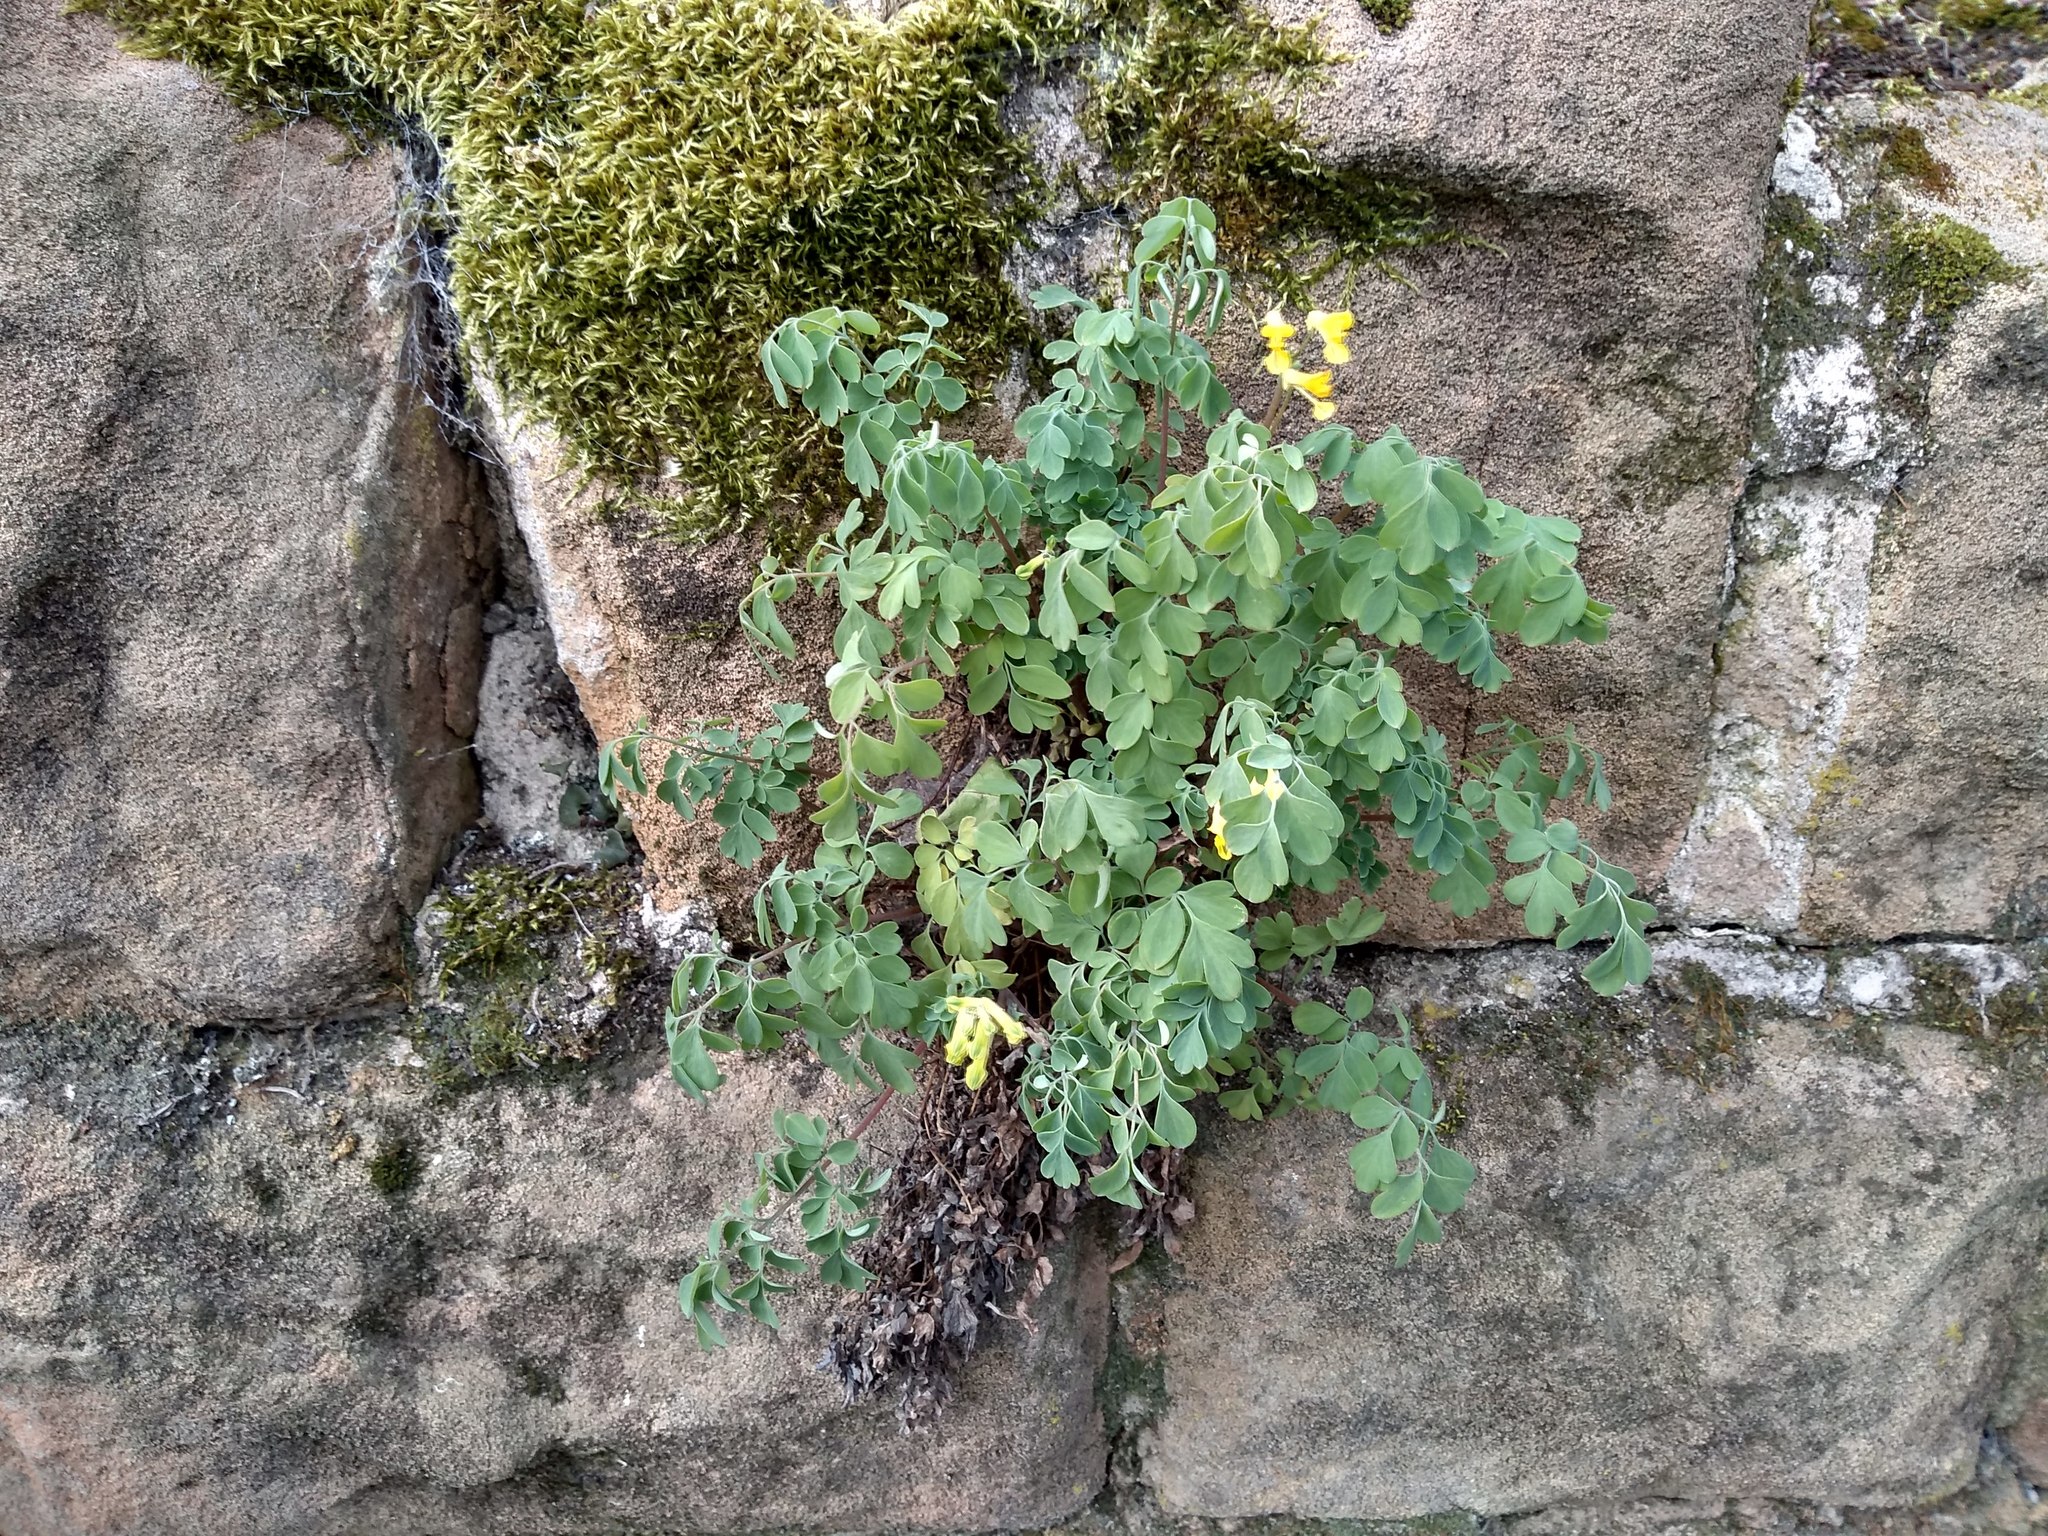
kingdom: Plantae
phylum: Tracheophyta
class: Magnoliopsida
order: Ranunculales
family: Papaveraceae
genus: Pseudofumaria
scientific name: Pseudofumaria lutea
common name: Yellow corydalis
